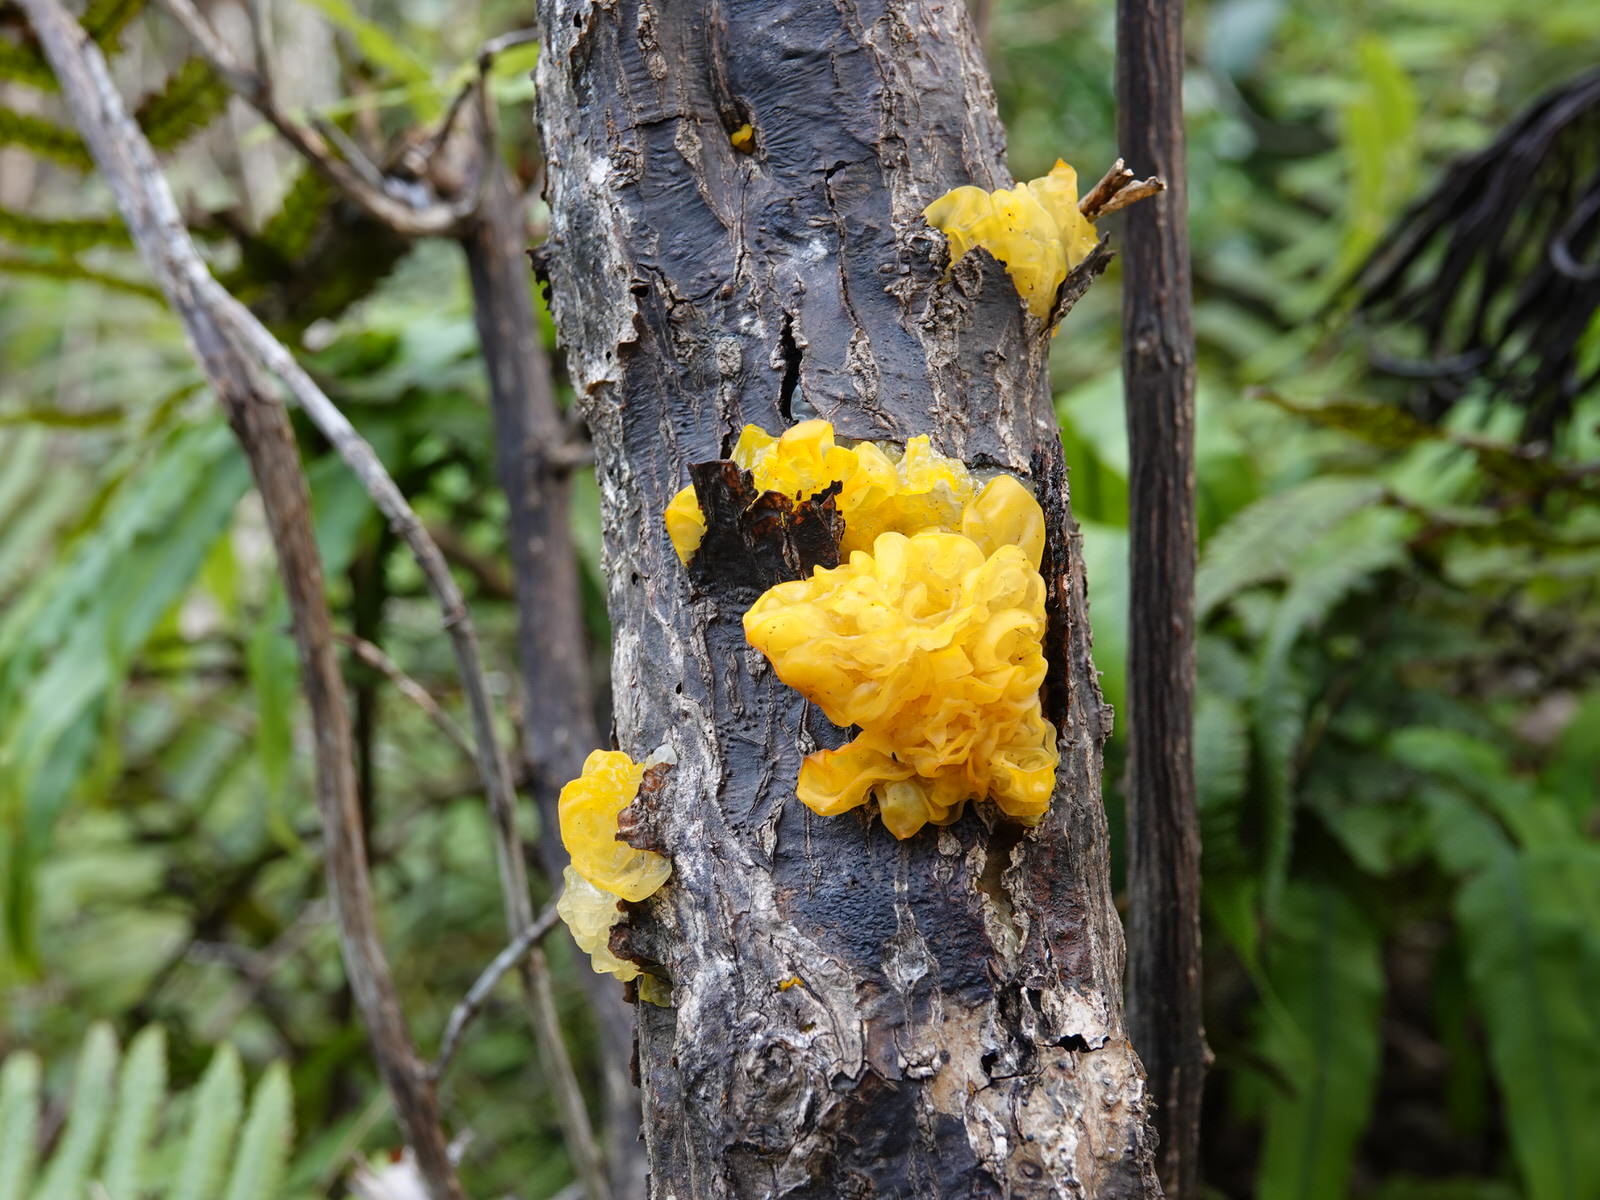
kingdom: Fungi
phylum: Basidiomycota
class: Tremellomycetes
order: Tremellales
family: Tremellaceae
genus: Tremella
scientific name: Tremella mesenterica
